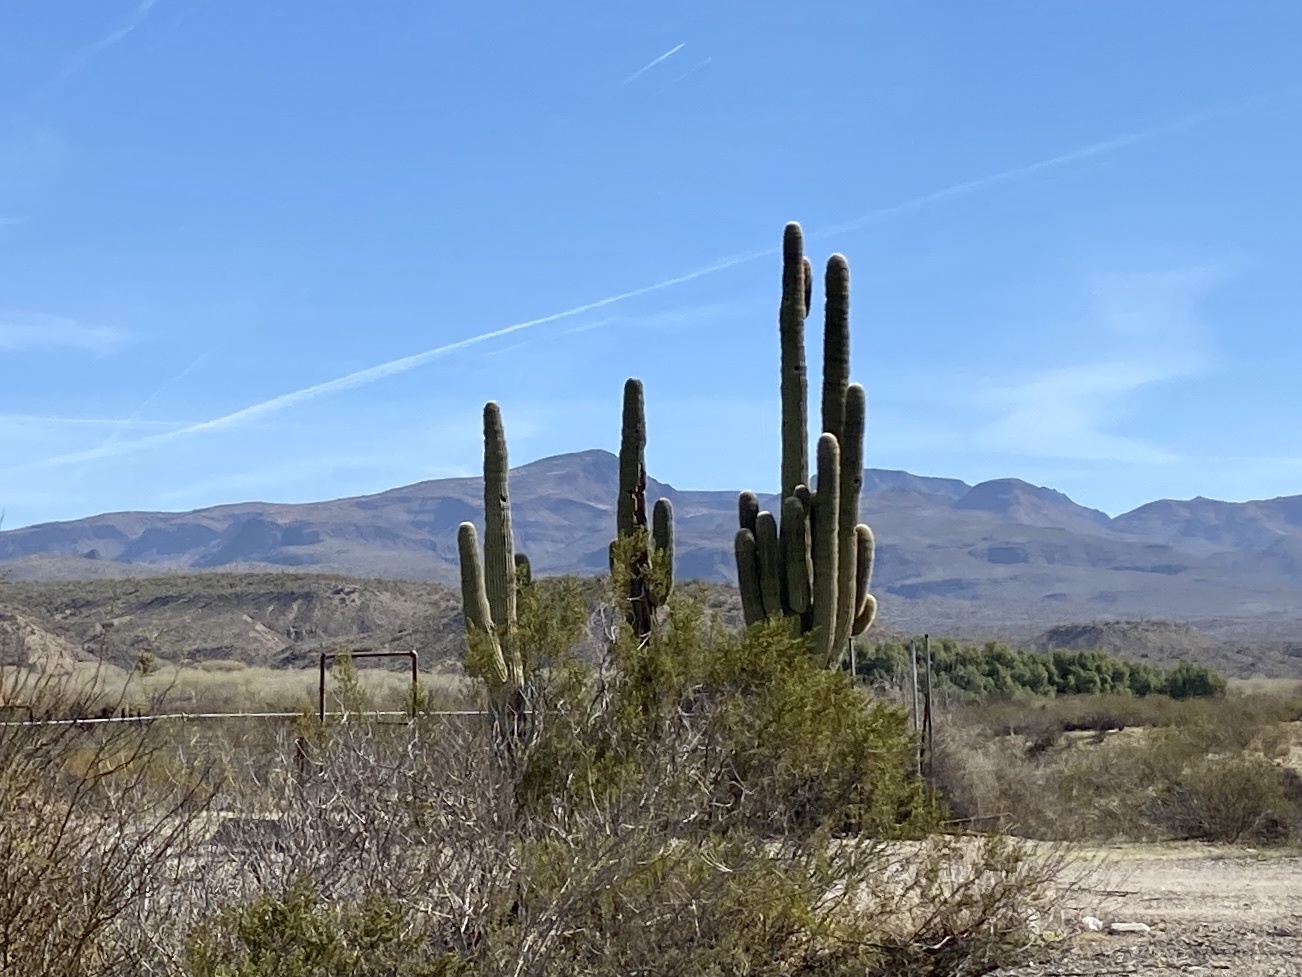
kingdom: Plantae
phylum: Tracheophyta
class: Magnoliopsida
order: Caryophyllales
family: Cactaceae
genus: Carnegiea
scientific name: Carnegiea gigantea
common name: Saguaro
